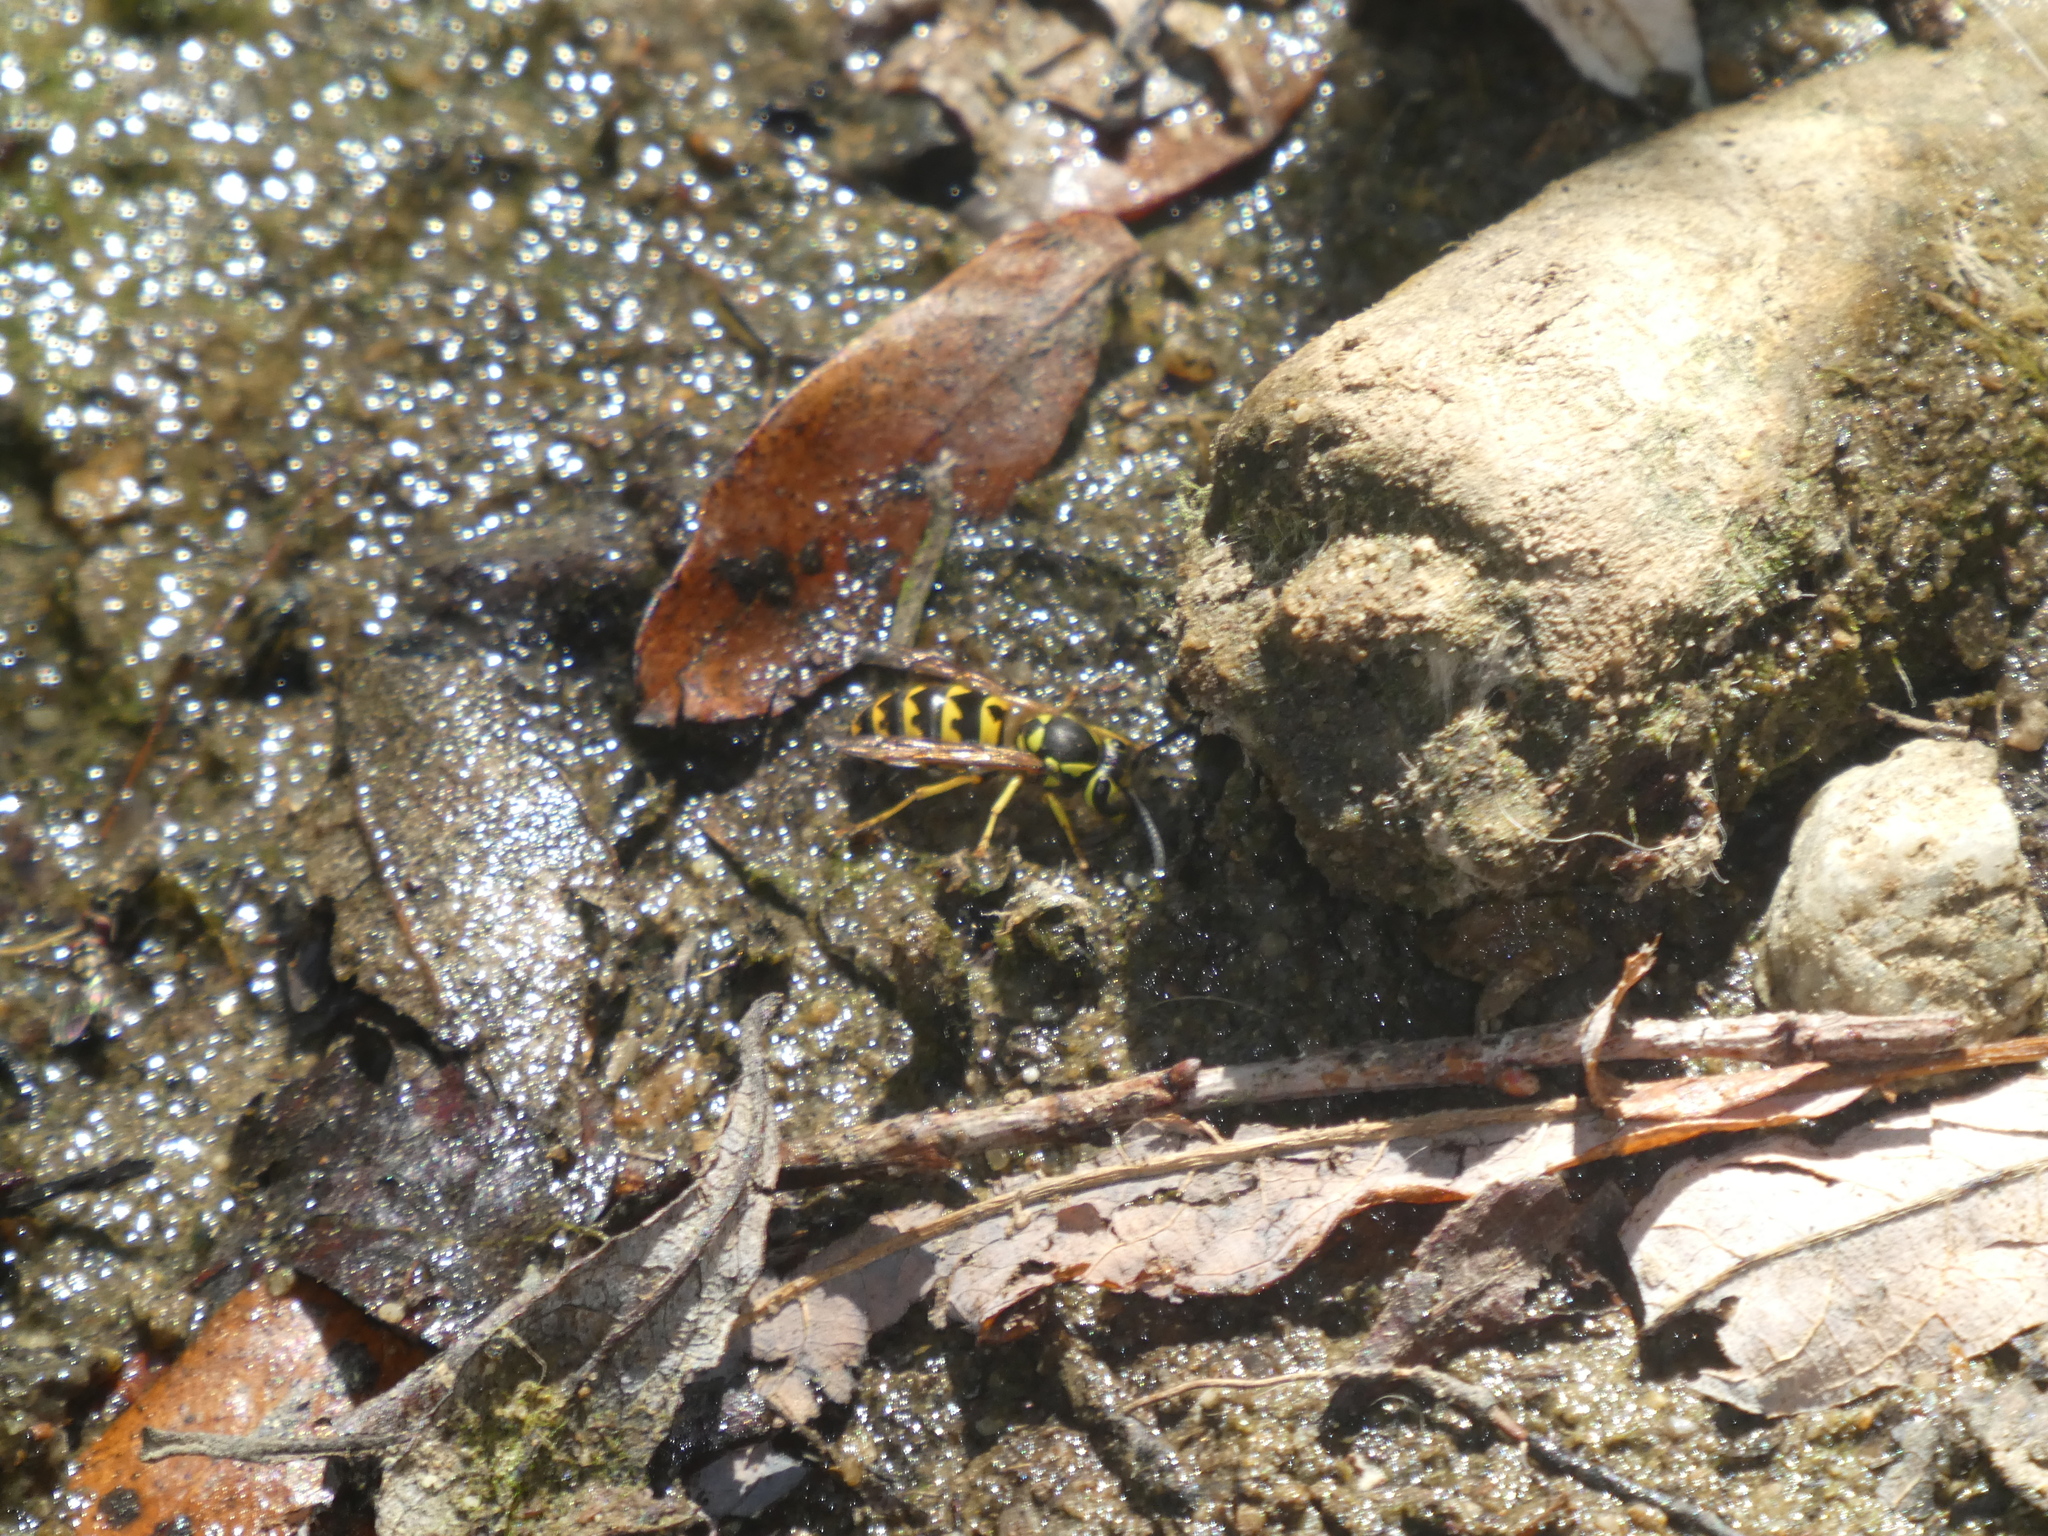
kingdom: Animalia
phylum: Arthropoda
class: Insecta
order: Hymenoptera
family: Vespidae
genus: Vespula
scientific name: Vespula pensylvanica
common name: Western yellowjacket
